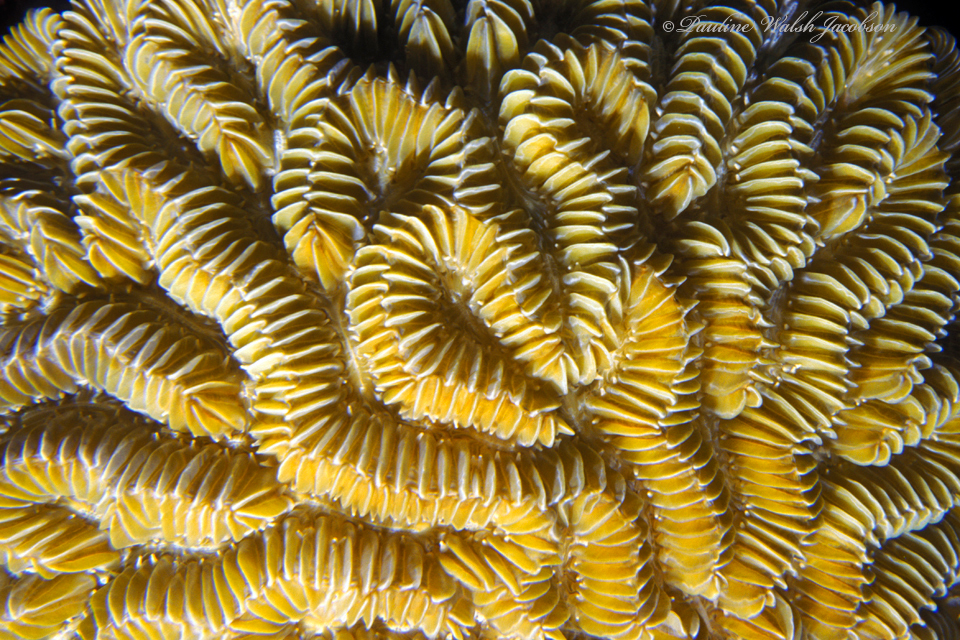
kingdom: Animalia
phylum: Cnidaria
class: Anthozoa
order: Scleractinia
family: Meandrinidae
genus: Meandrina
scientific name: Meandrina meandrites
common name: Maze coral
